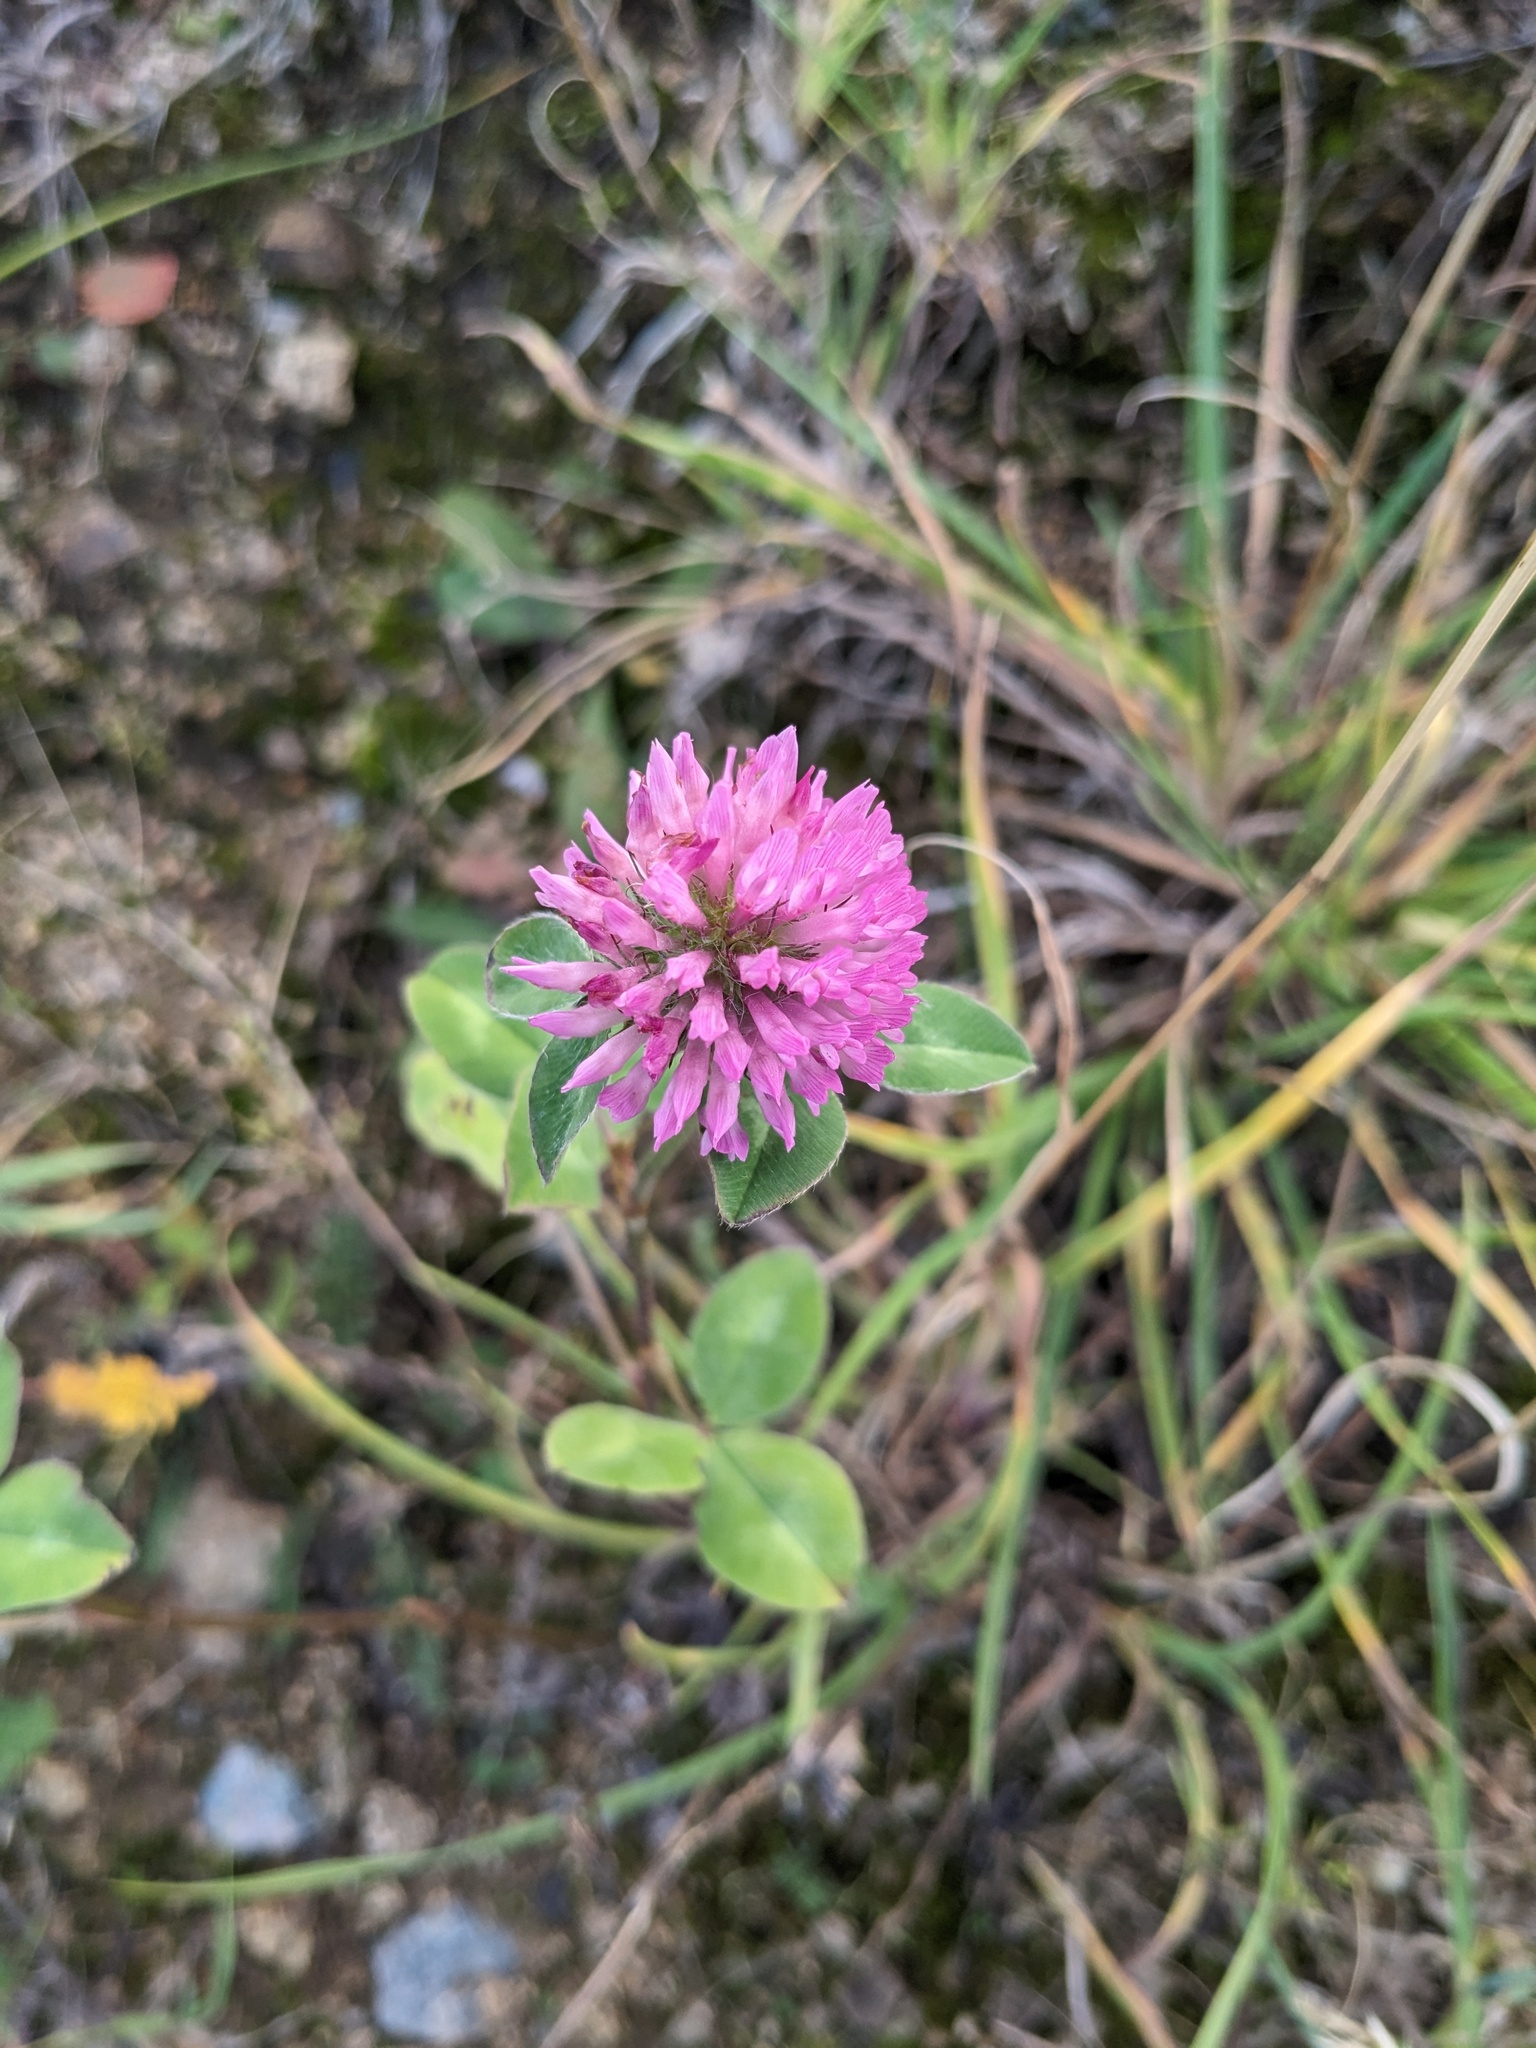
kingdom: Plantae
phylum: Tracheophyta
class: Magnoliopsida
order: Fabales
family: Fabaceae
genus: Trifolium
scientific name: Trifolium pratense
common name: Red clover
